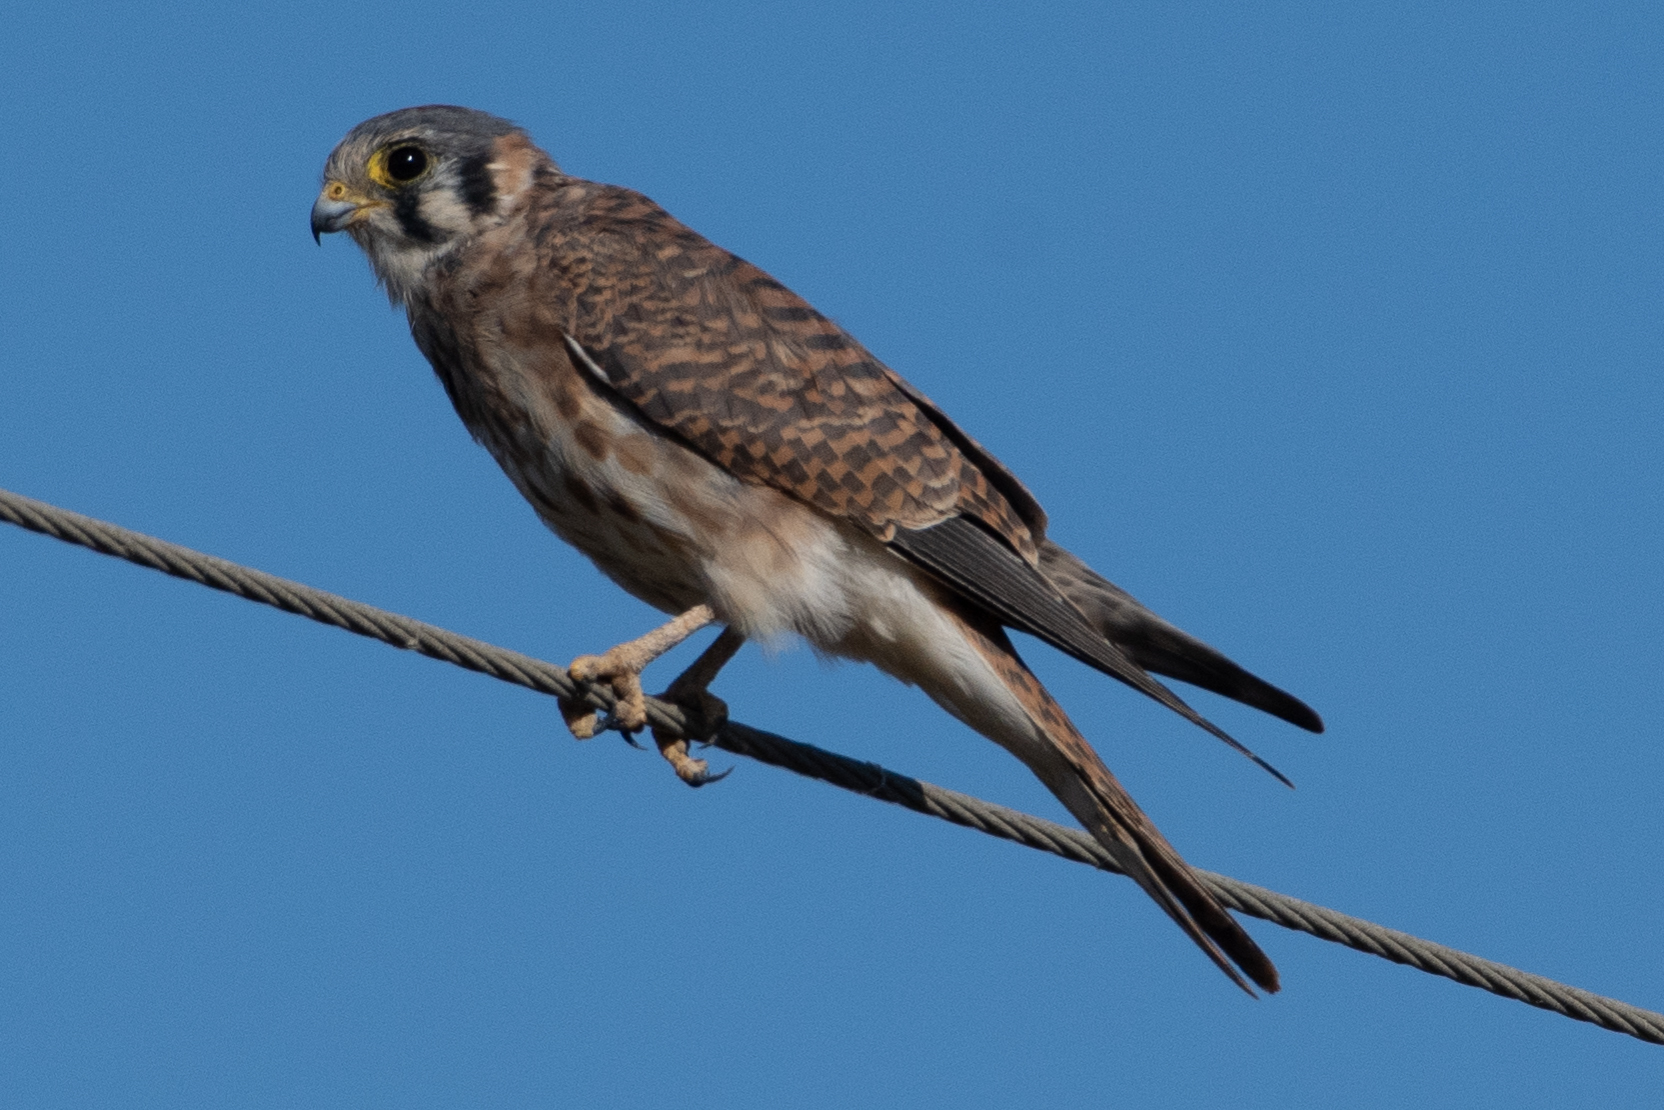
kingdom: Animalia
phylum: Chordata
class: Aves
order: Falconiformes
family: Falconidae
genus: Falco
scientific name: Falco sparverius
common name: American kestrel
